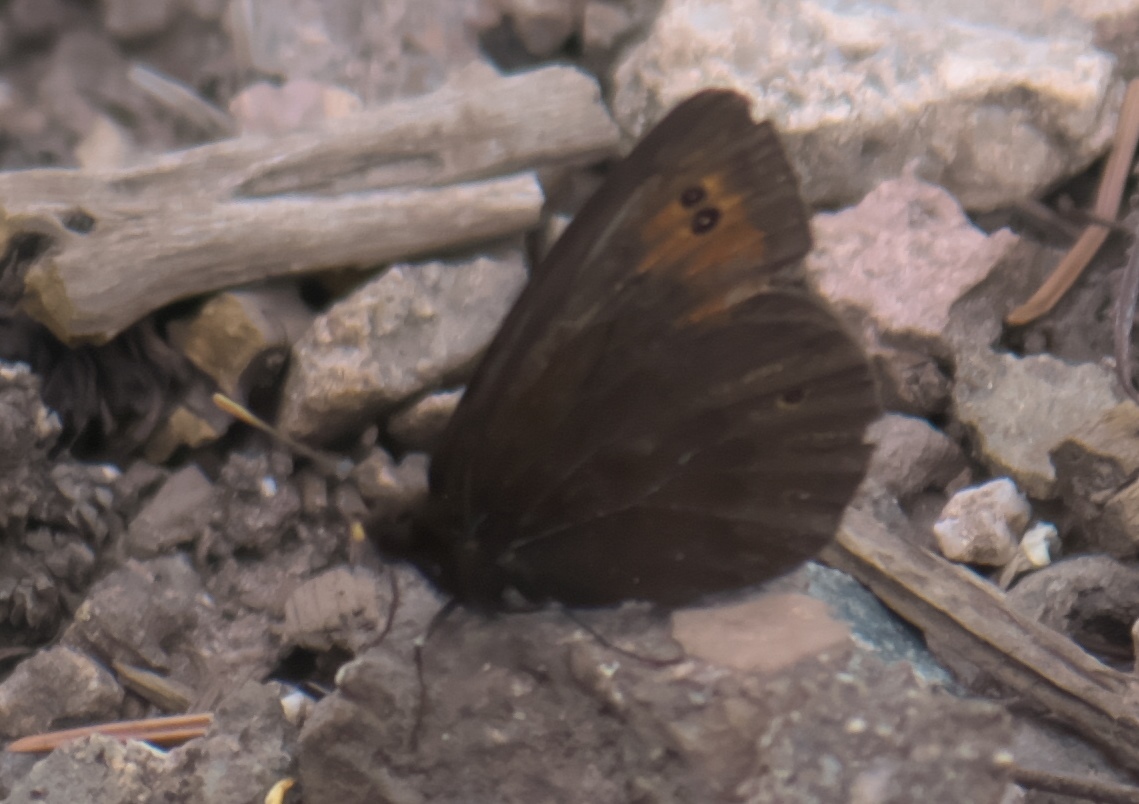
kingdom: Animalia
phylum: Arthropoda
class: Insecta
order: Lepidoptera
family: Nymphalidae
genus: Erebia
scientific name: Erebia epipsodea
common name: Common alpine
